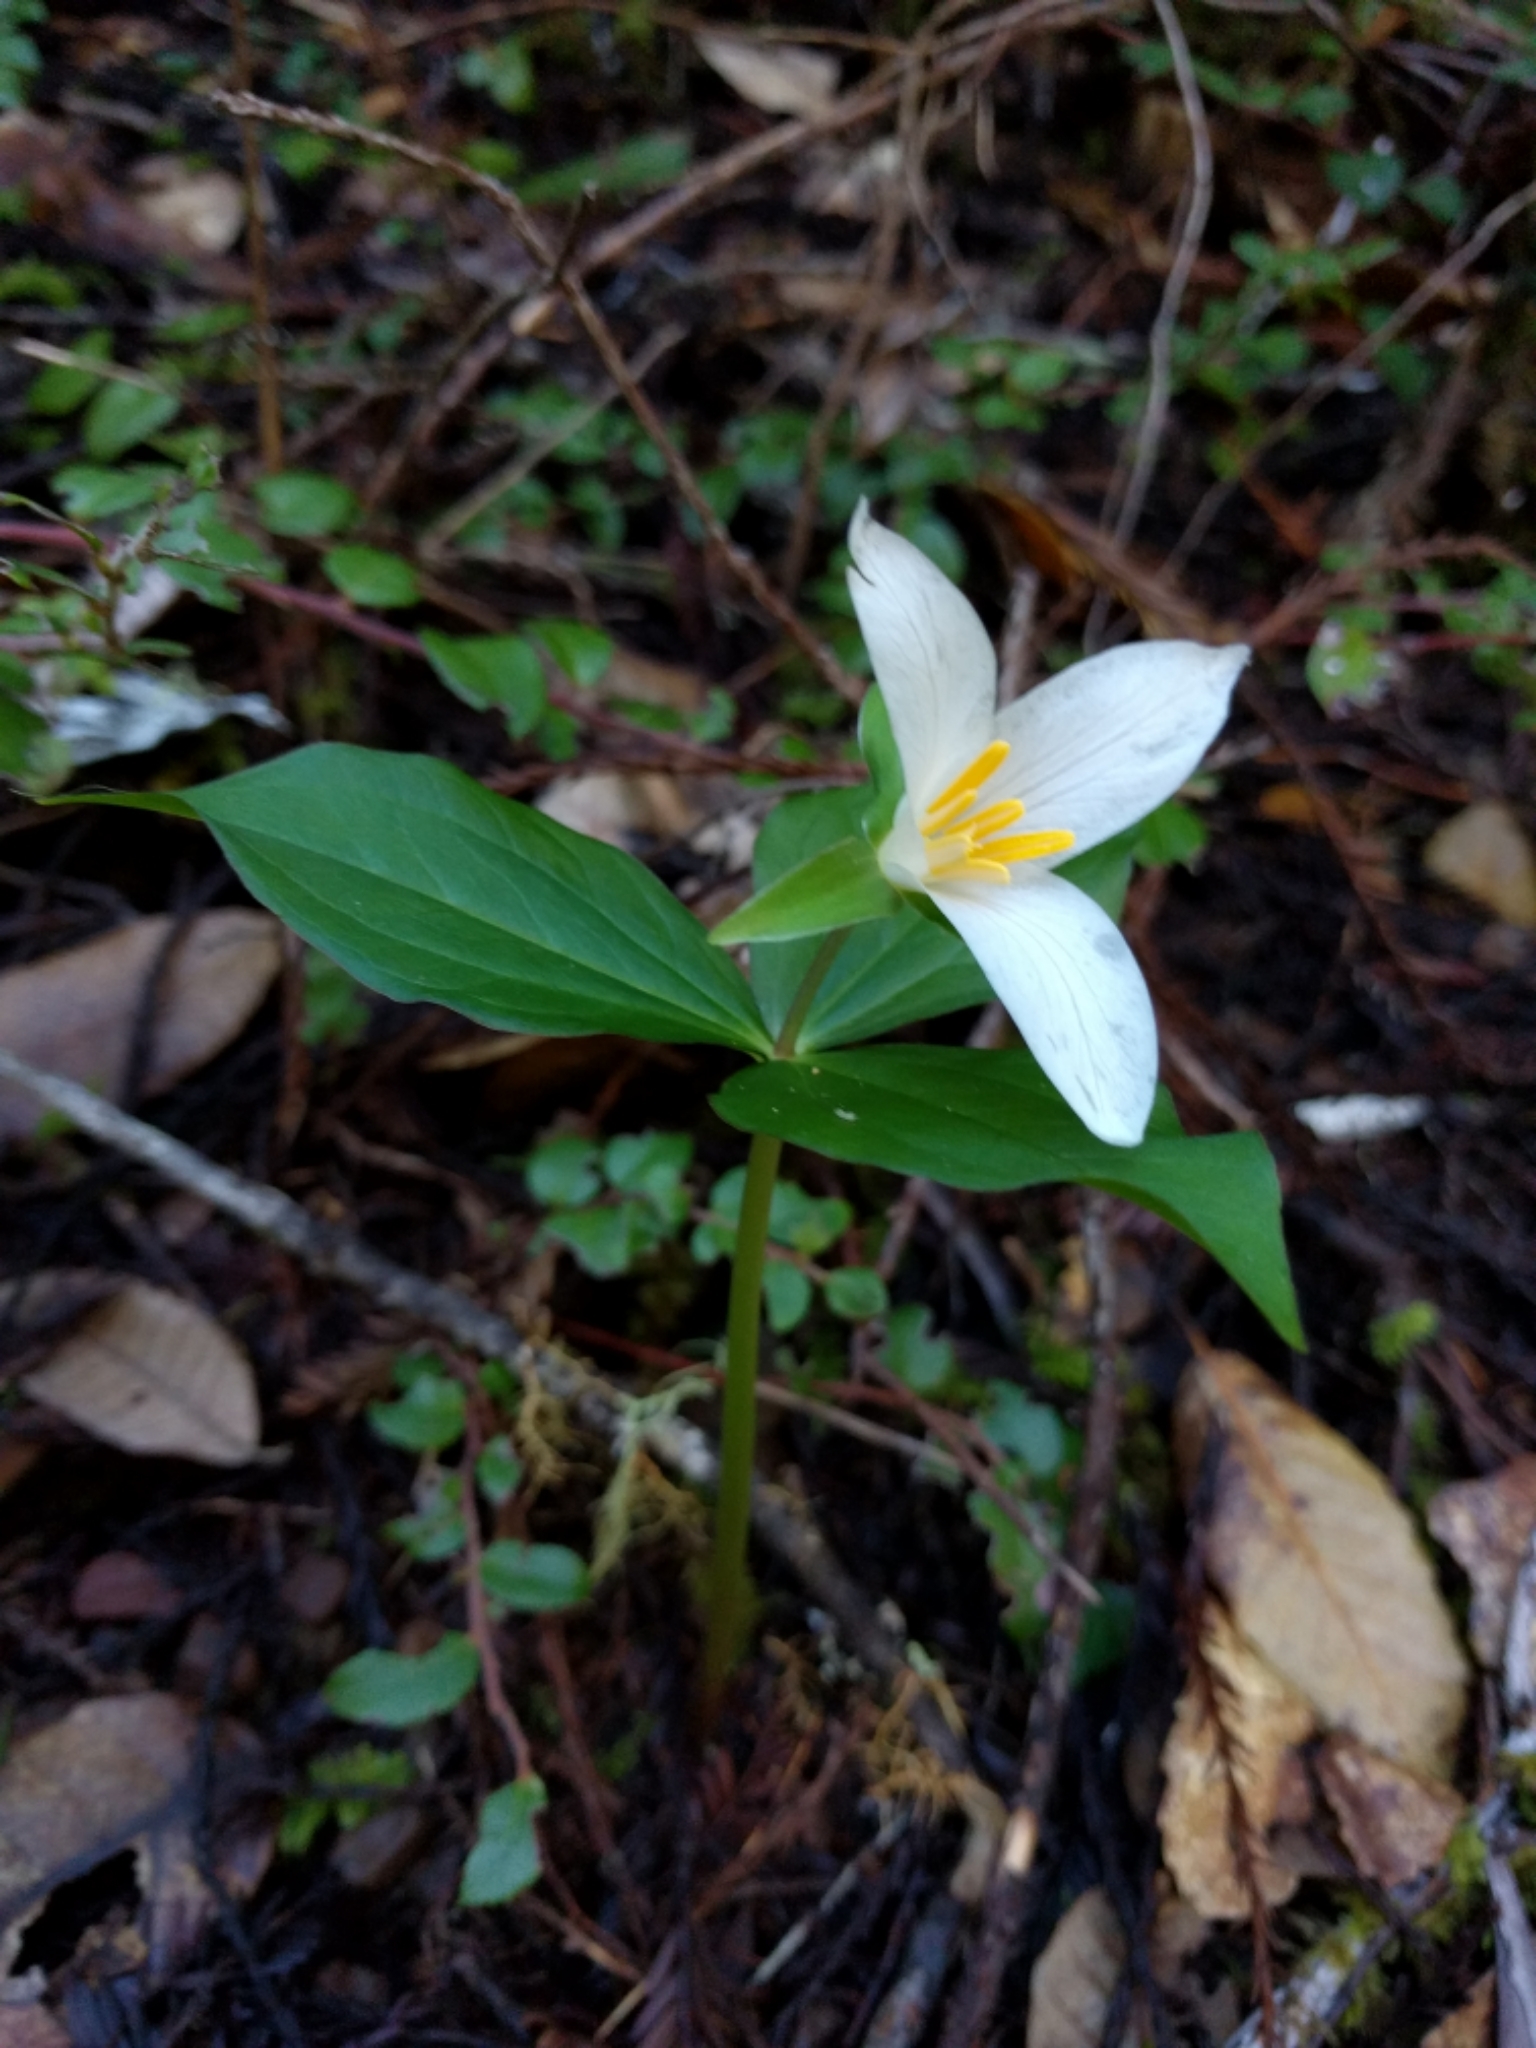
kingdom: Plantae
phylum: Tracheophyta
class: Liliopsida
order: Liliales
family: Melanthiaceae
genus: Trillium
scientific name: Trillium ovatum
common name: Pacific trillium
